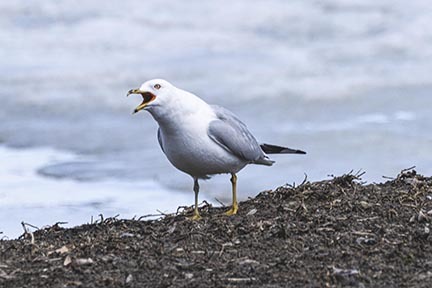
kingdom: Animalia
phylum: Chordata
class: Aves
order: Charadriiformes
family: Laridae
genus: Larus
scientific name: Larus delawarensis
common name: Ring-billed gull
